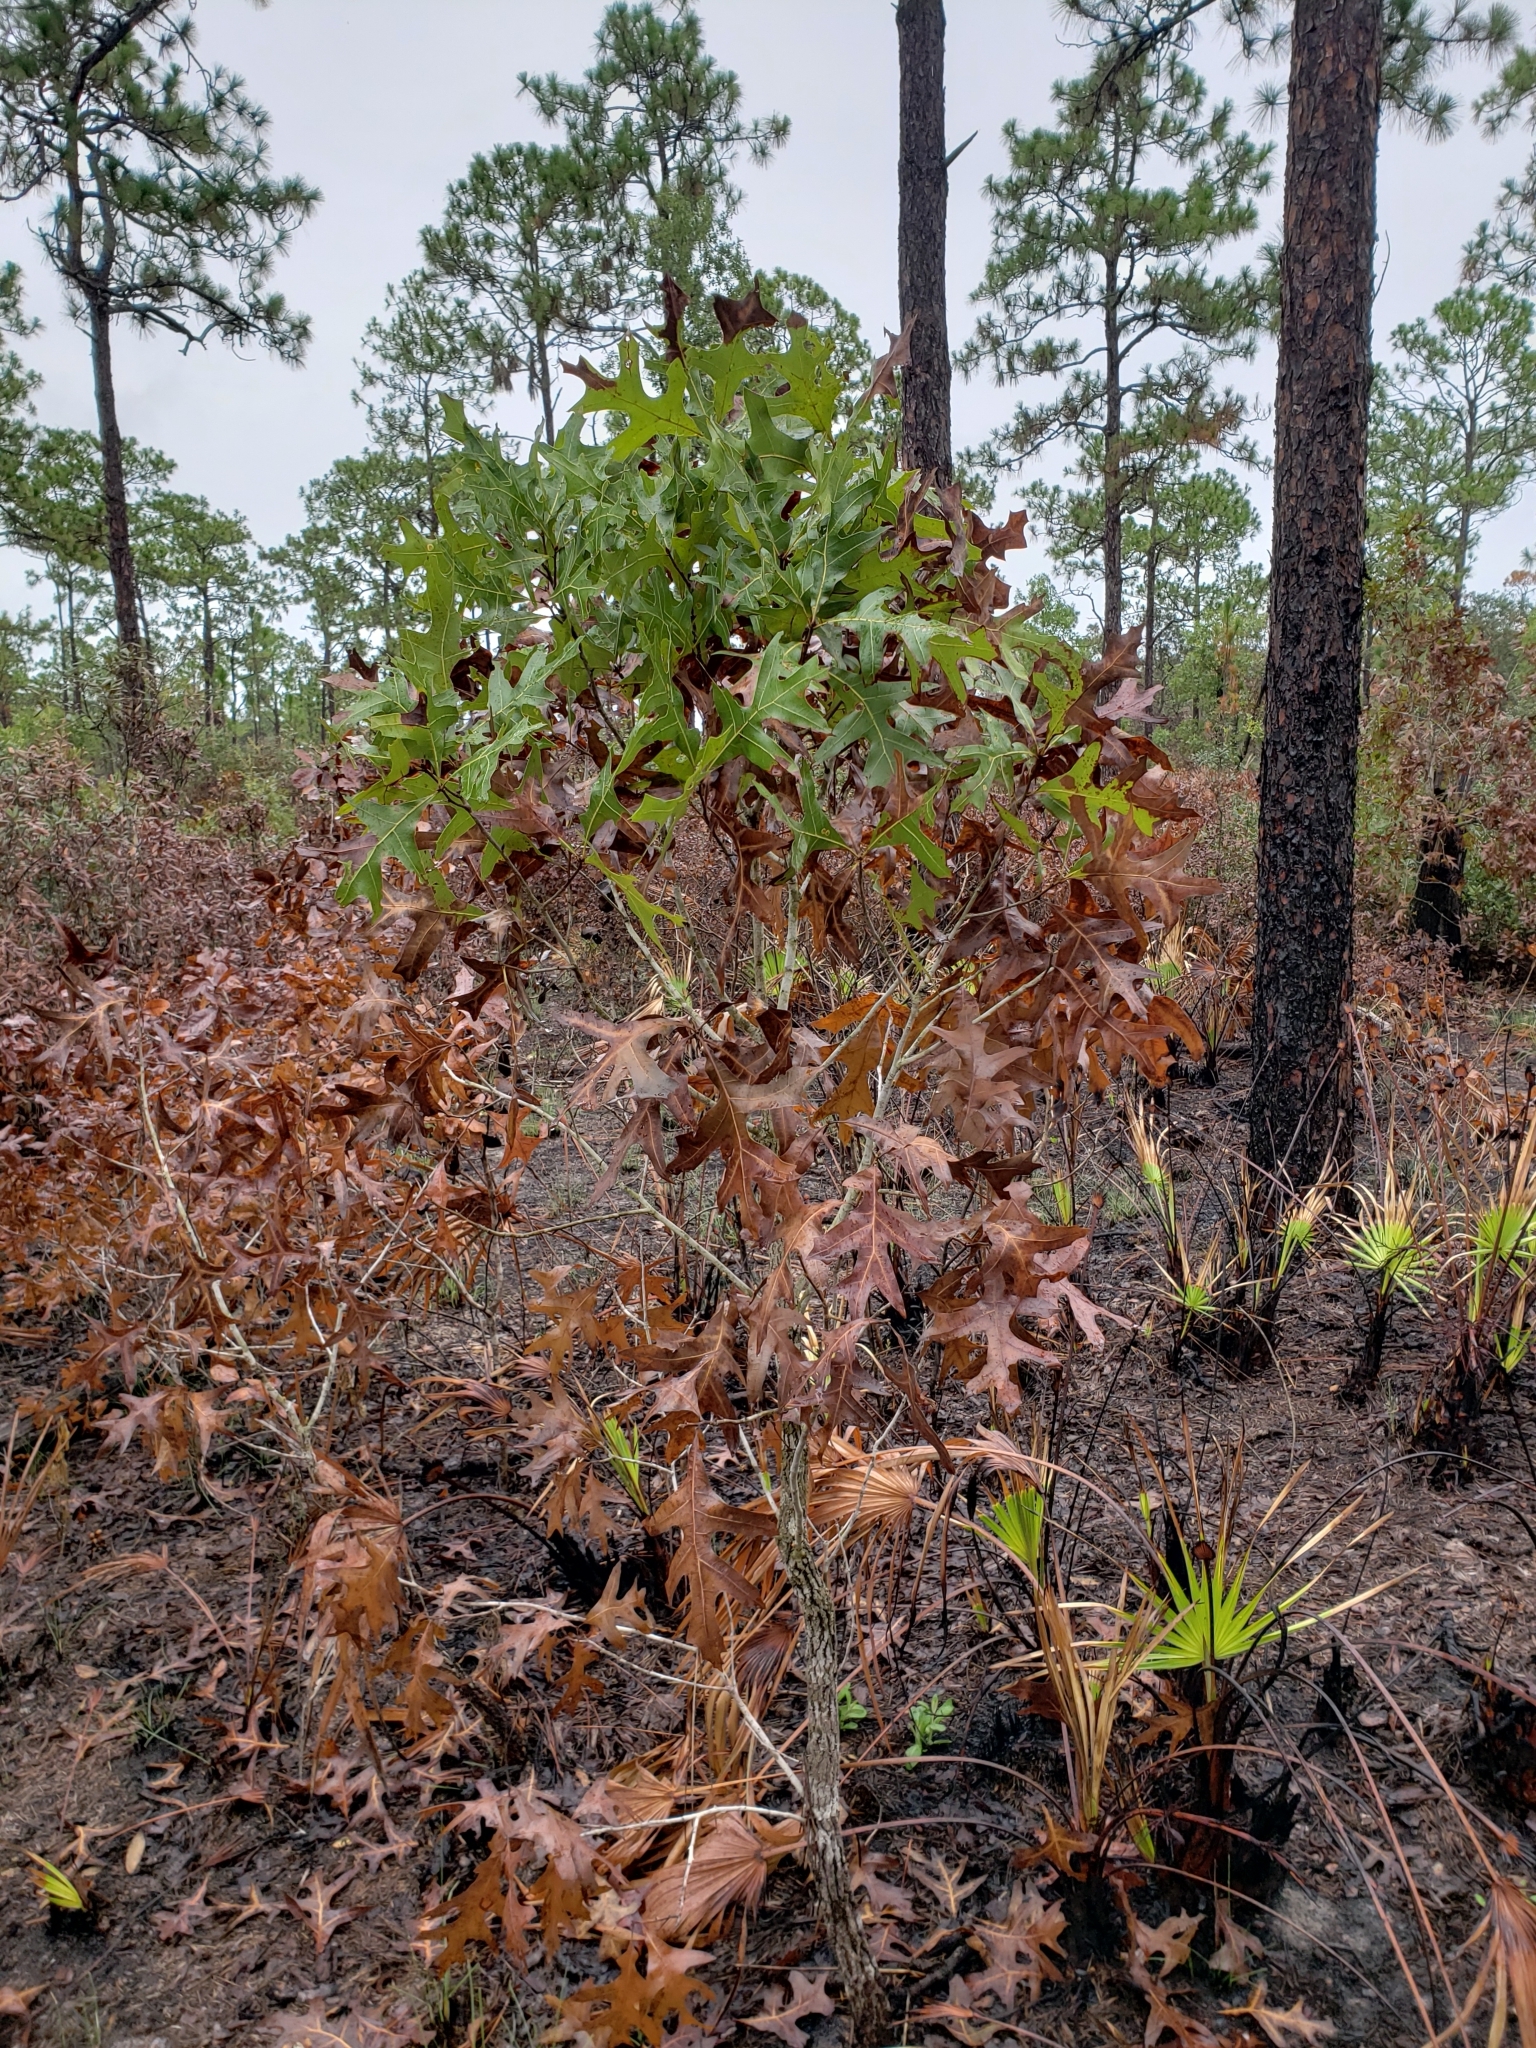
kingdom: Plantae
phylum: Tracheophyta
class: Magnoliopsida
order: Fagales
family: Fagaceae
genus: Quercus
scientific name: Quercus laevis
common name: Turkey oak
